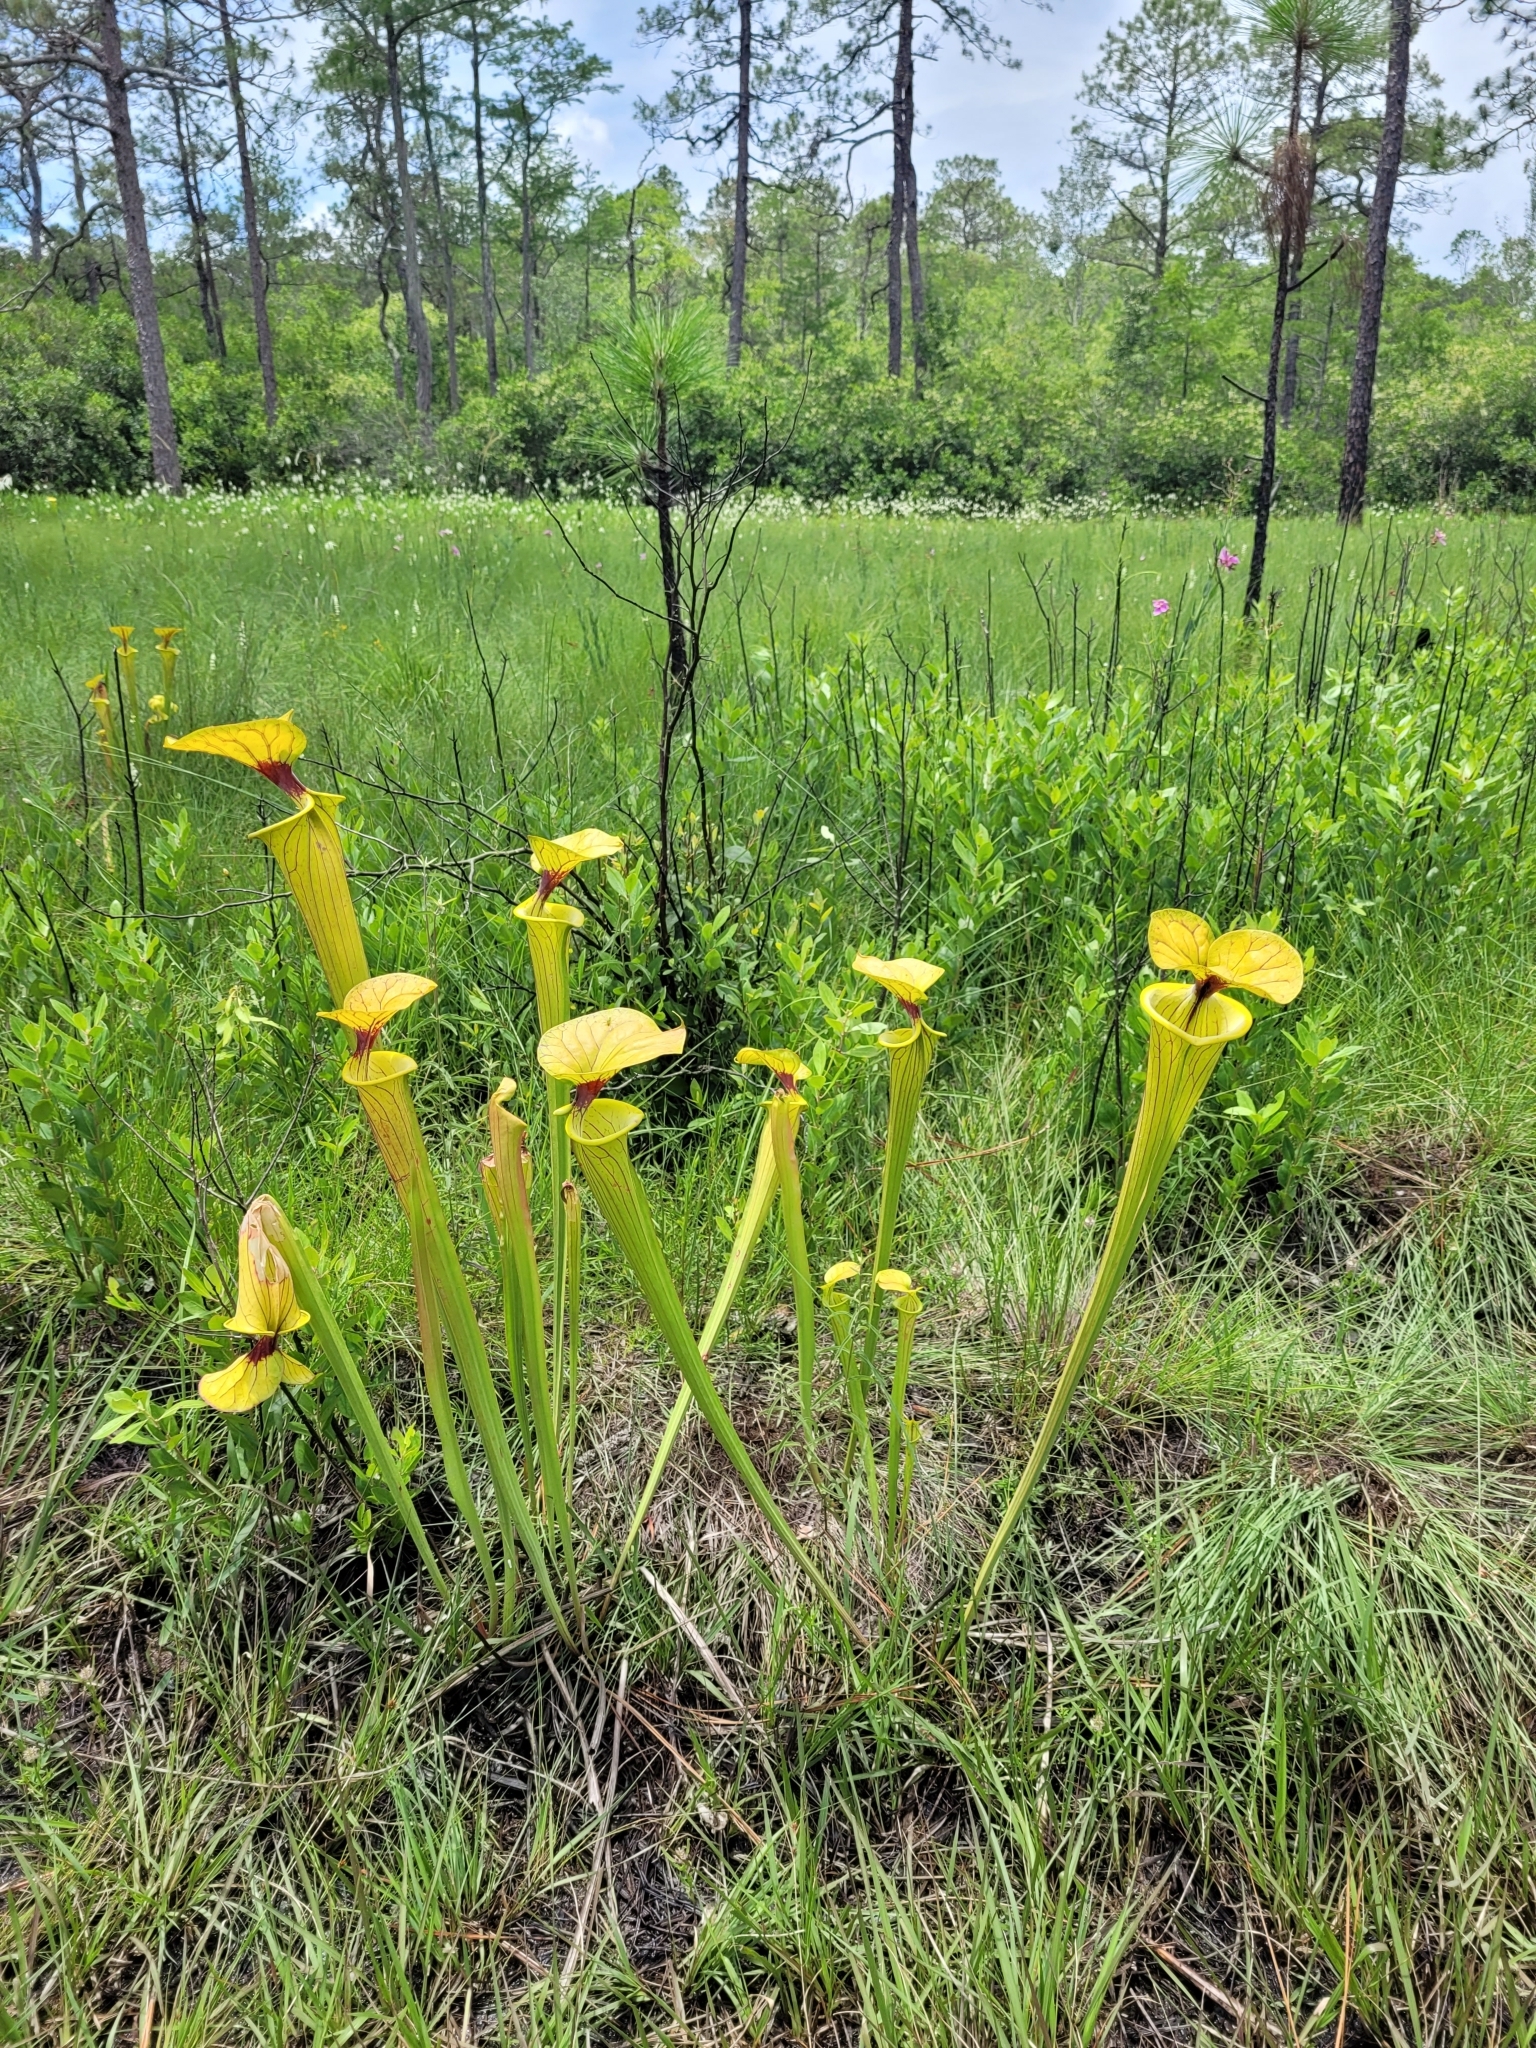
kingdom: Plantae
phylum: Tracheophyta
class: Magnoliopsida
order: Ericales
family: Sarraceniaceae
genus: Sarracenia
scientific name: Sarracenia flava
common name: Trumpets
